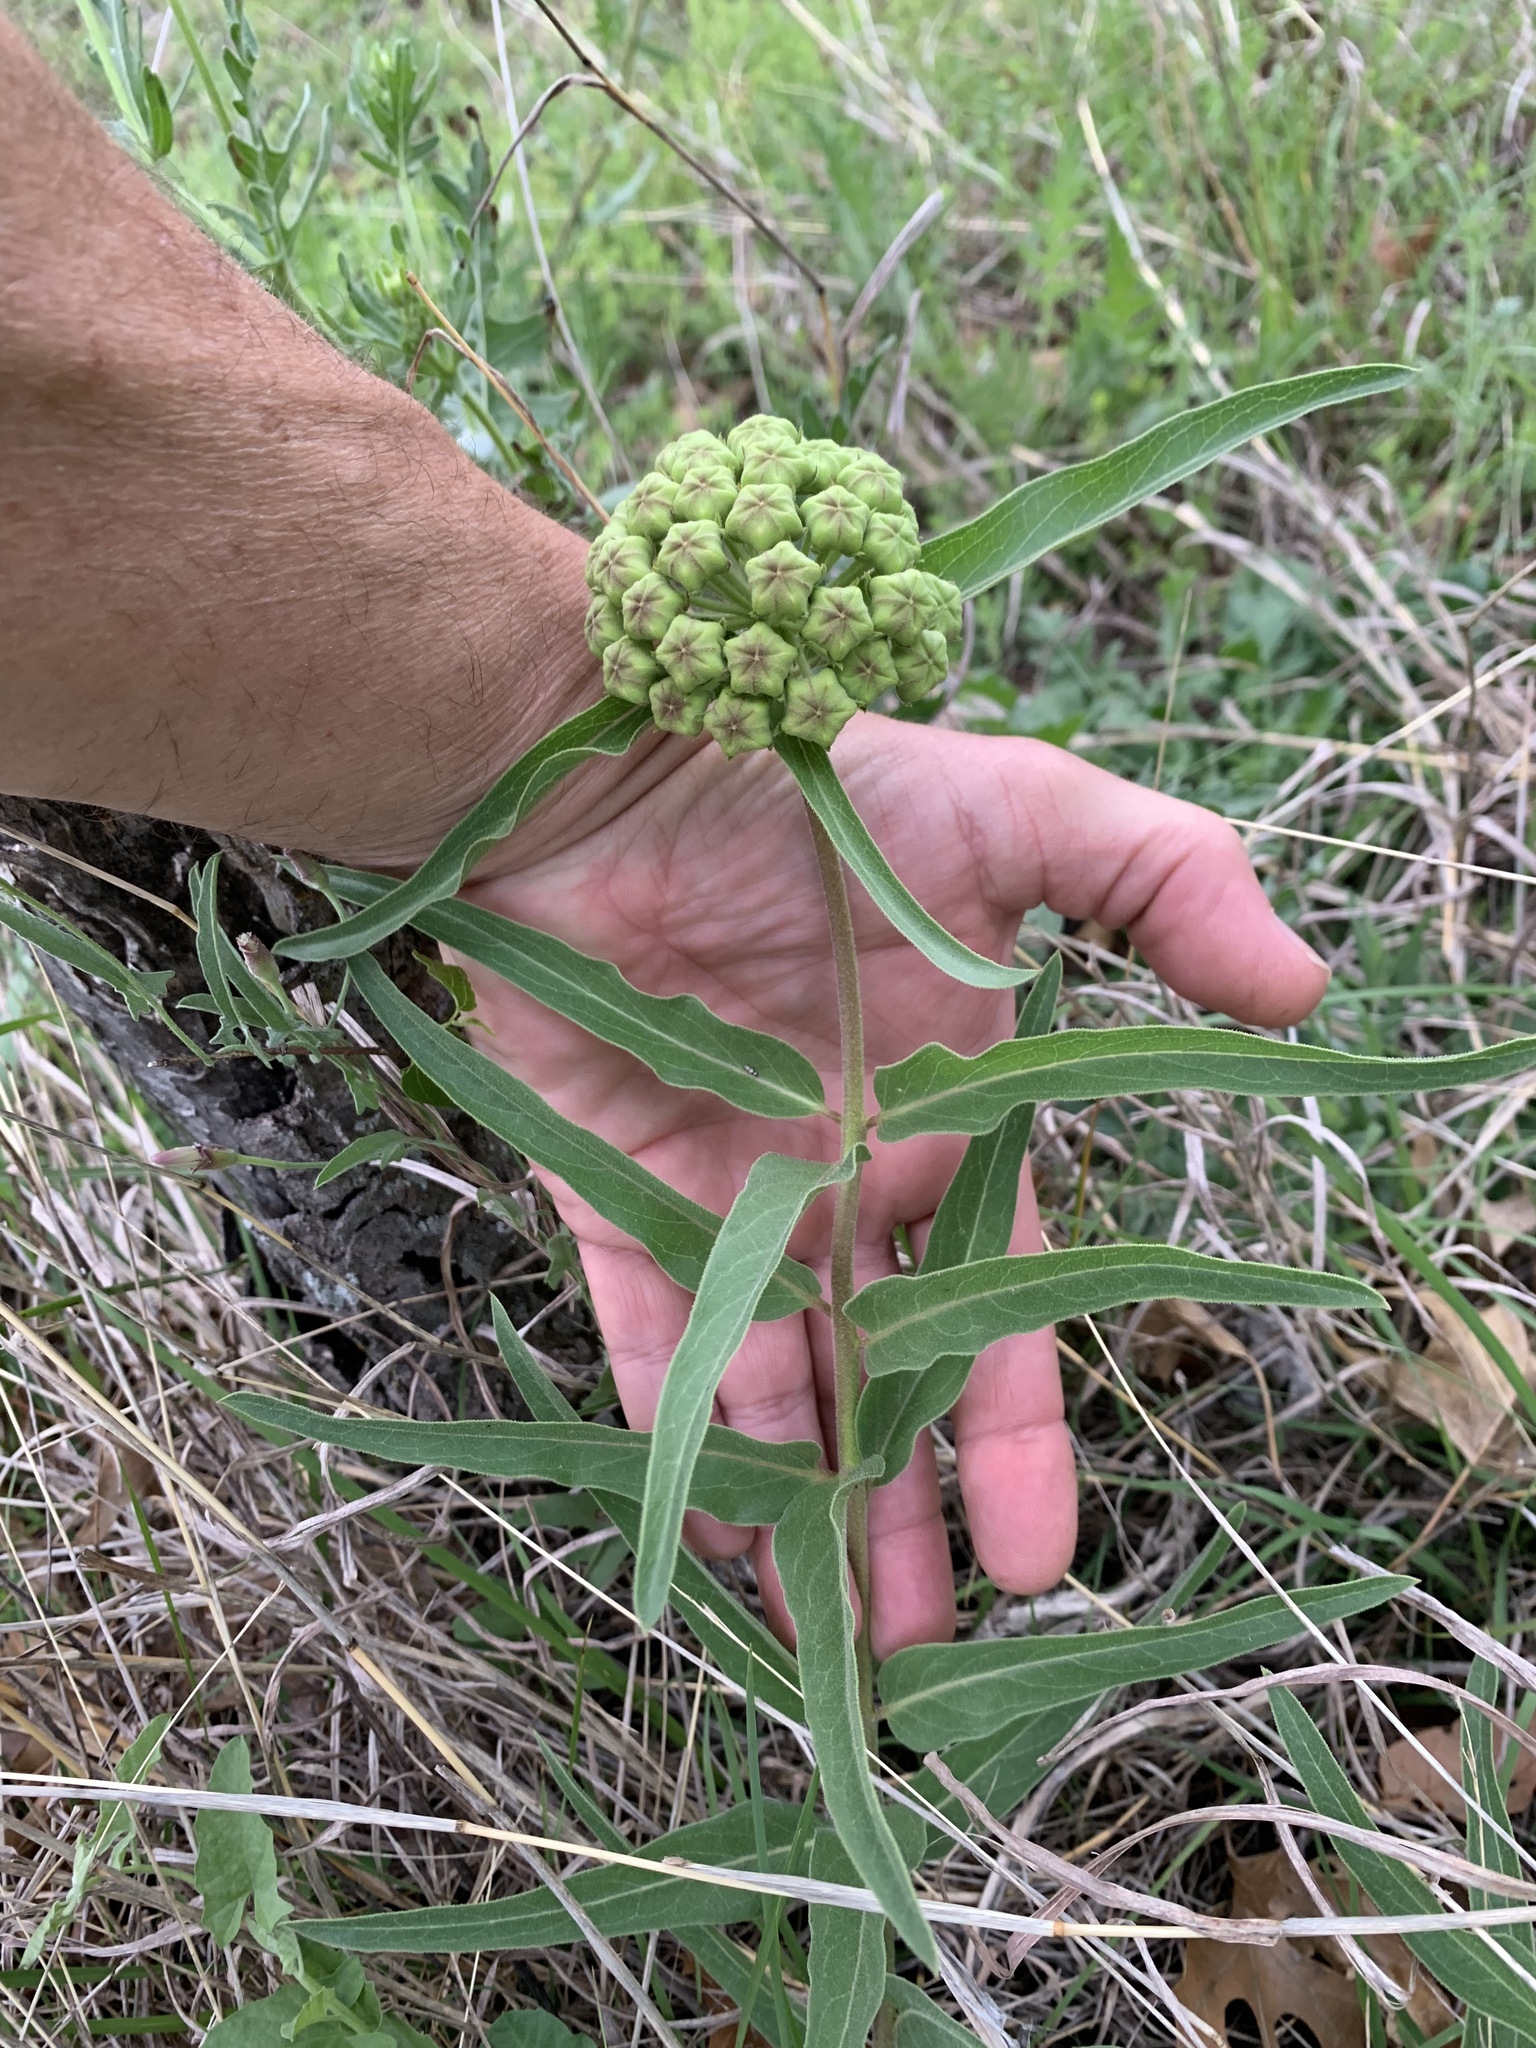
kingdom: Plantae
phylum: Tracheophyta
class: Magnoliopsida
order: Gentianales
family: Apocynaceae
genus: Asclepias
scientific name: Asclepias asperula
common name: Antelope horns
